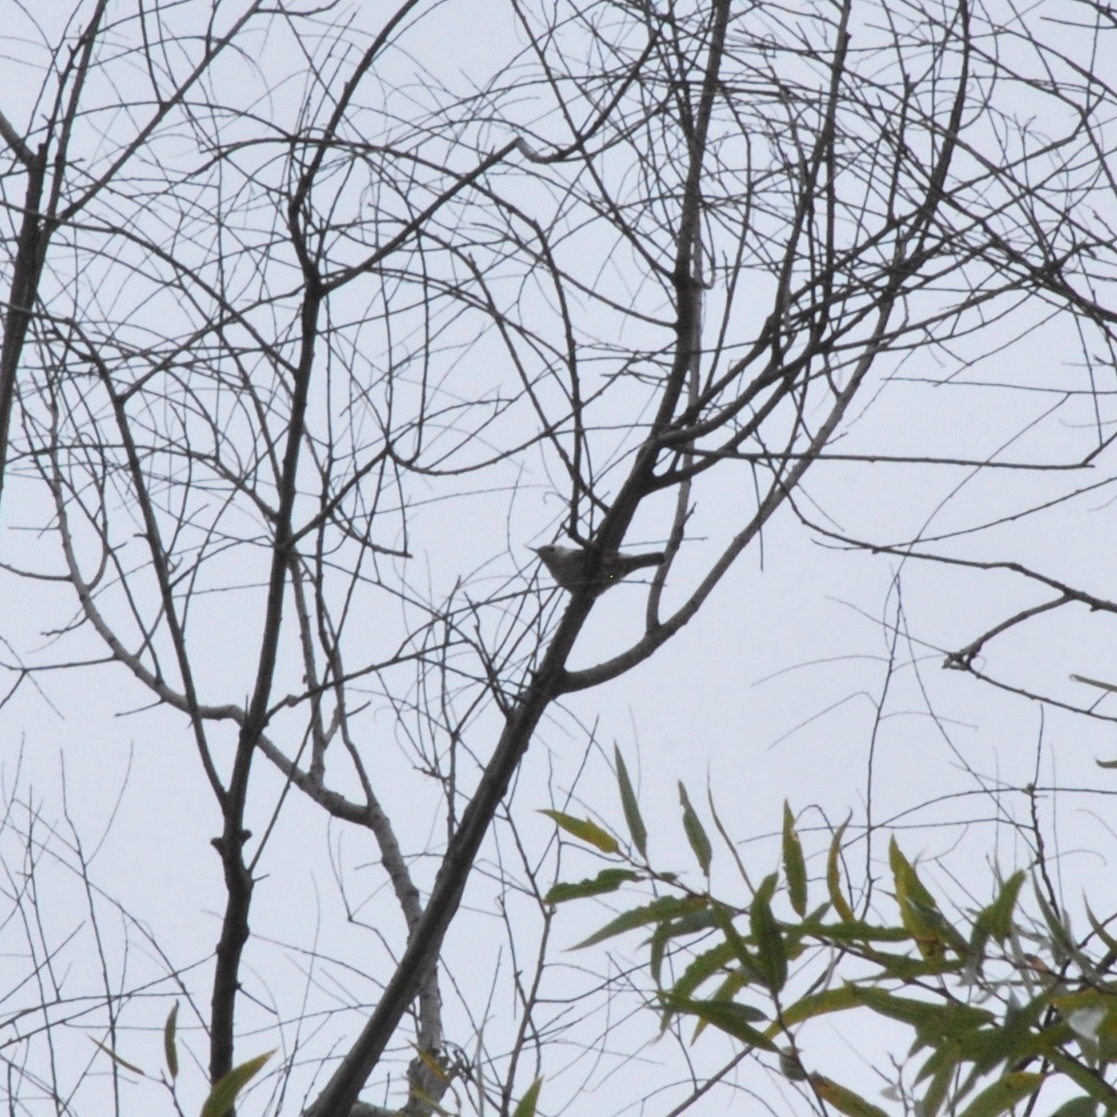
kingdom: Animalia
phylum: Chordata
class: Aves
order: Passeriformes
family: Sittidae
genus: Sitta
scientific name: Sitta carolinensis
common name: White-breasted nuthatch
